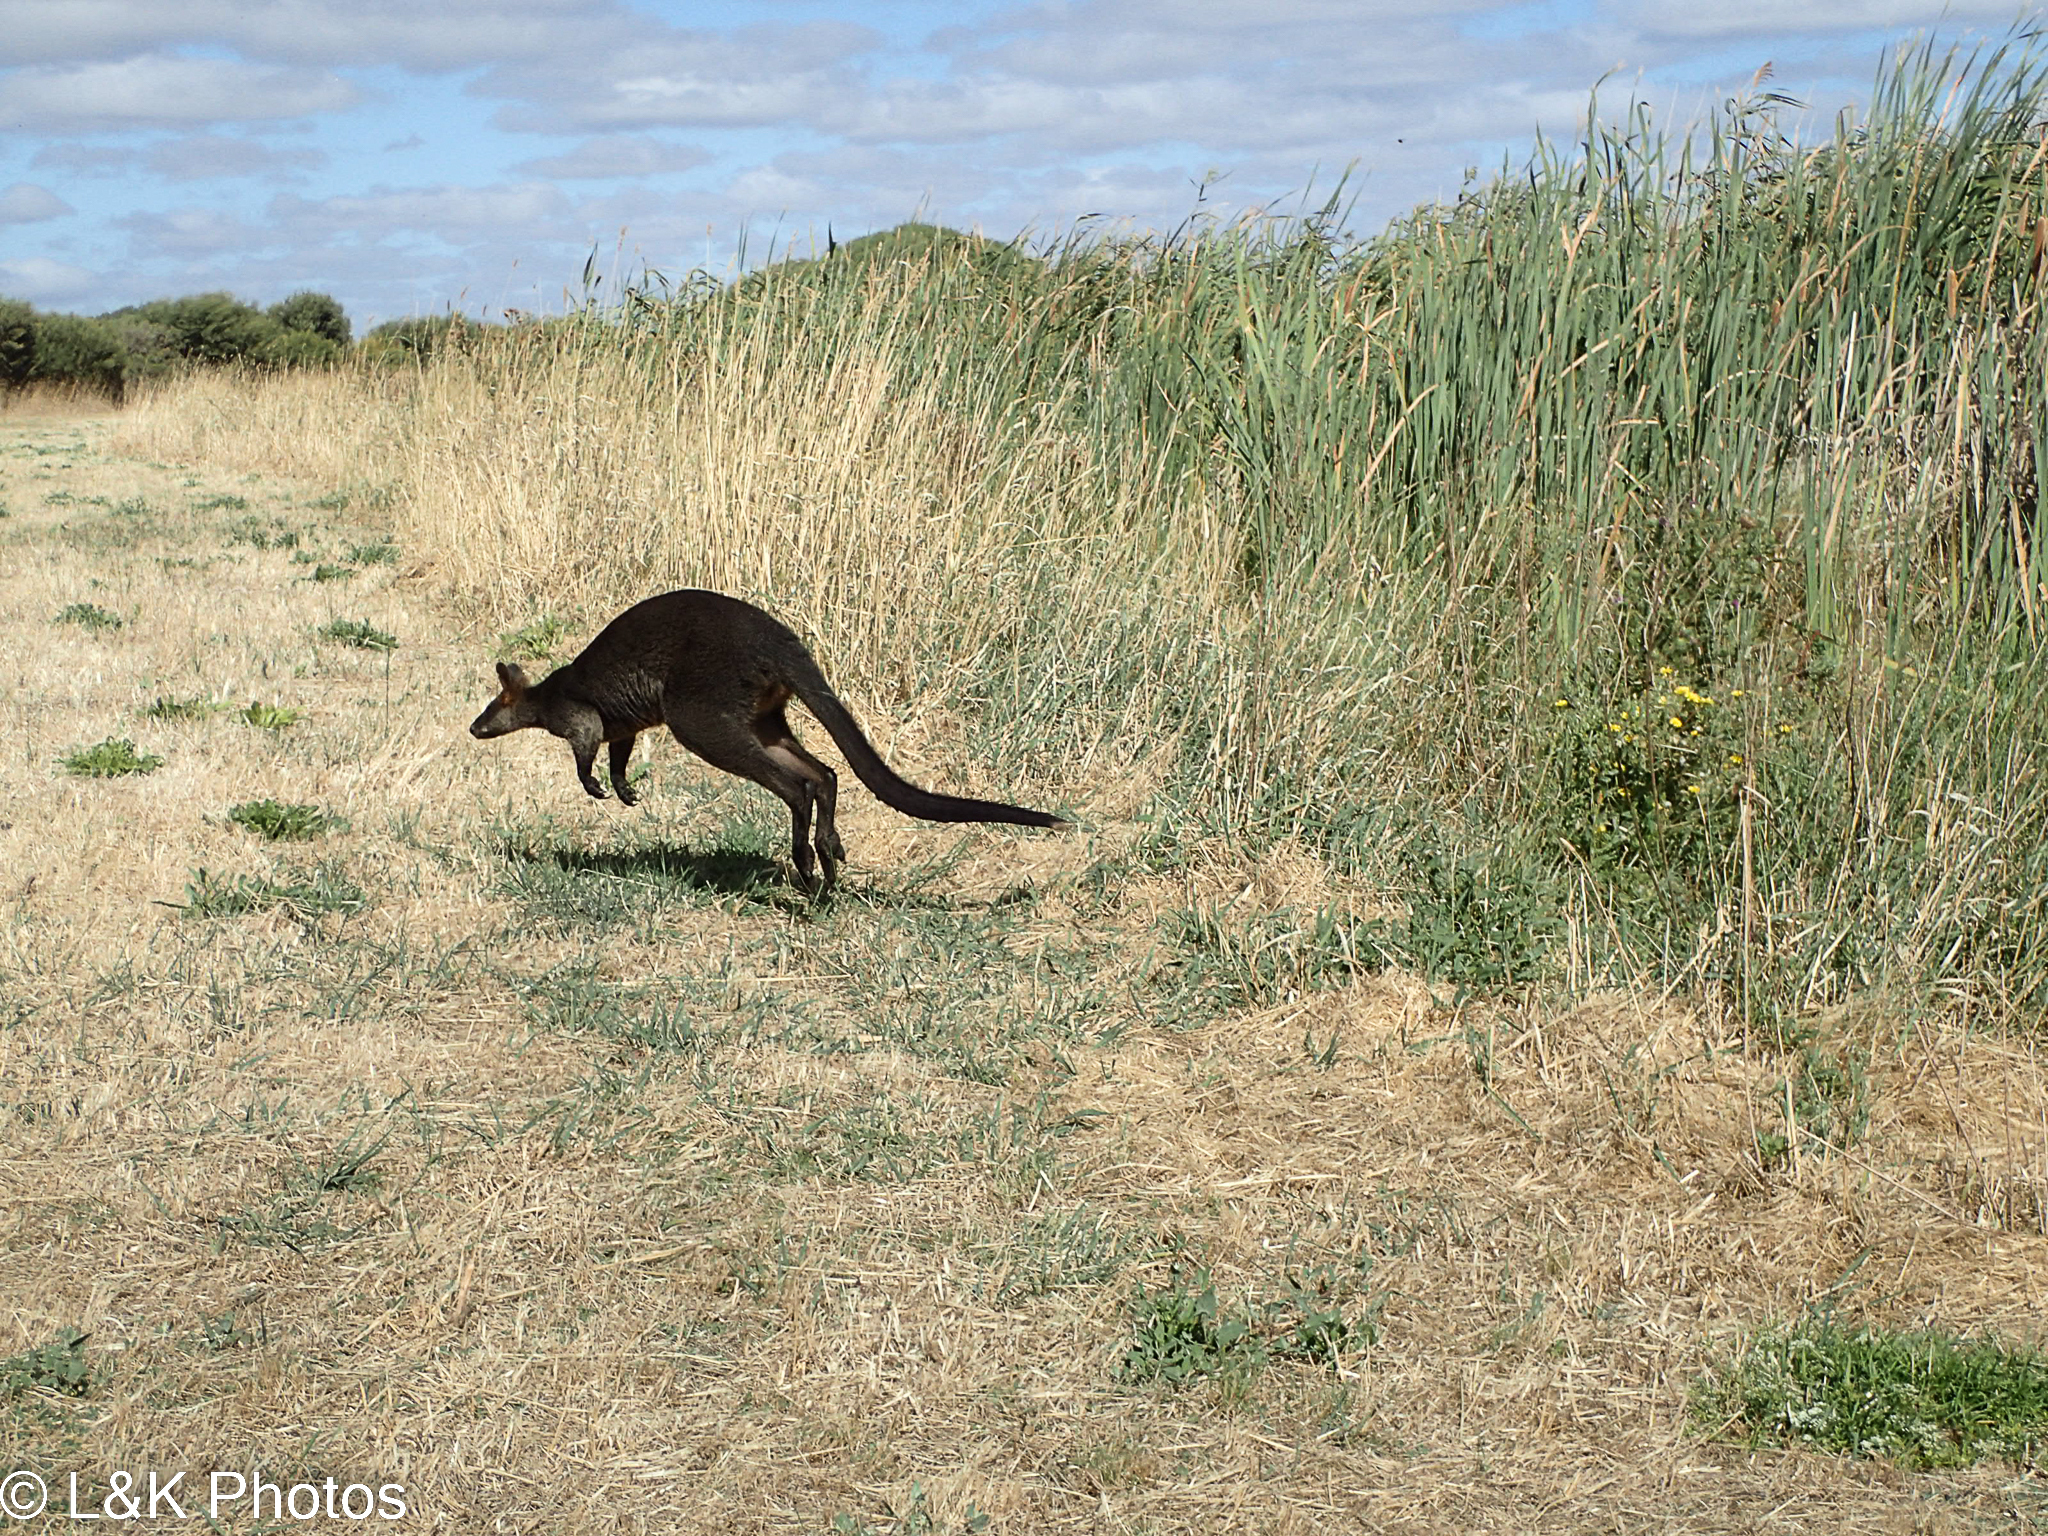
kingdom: Animalia
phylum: Chordata
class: Mammalia
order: Diprotodontia
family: Macropodidae
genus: Wallabia
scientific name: Wallabia bicolor
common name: Swamp wallaby
